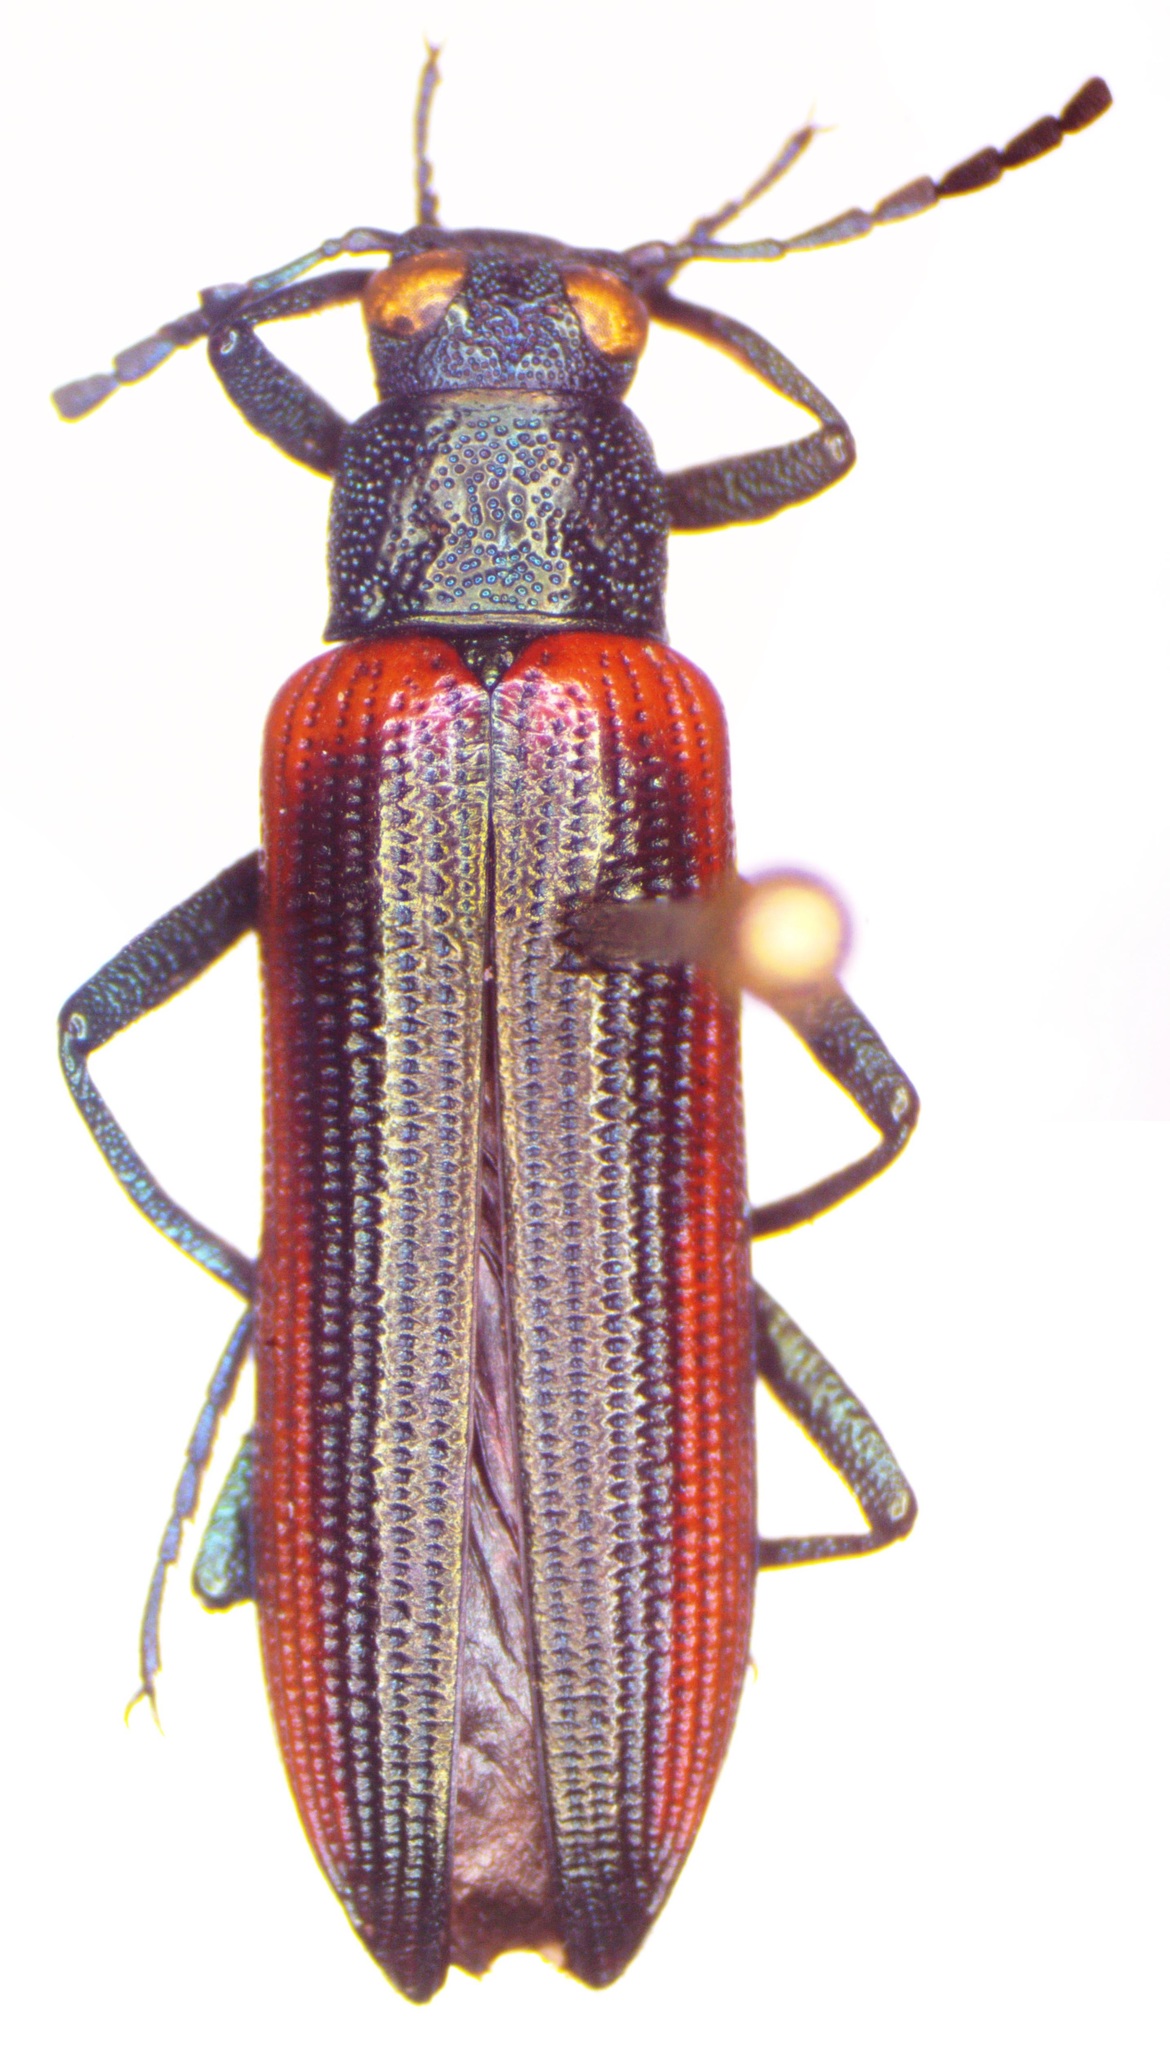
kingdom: Animalia
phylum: Arthropoda
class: Insecta
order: Coleoptera
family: Tenebrionidae
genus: Strongylium
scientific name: Strongylium nitidiceps
